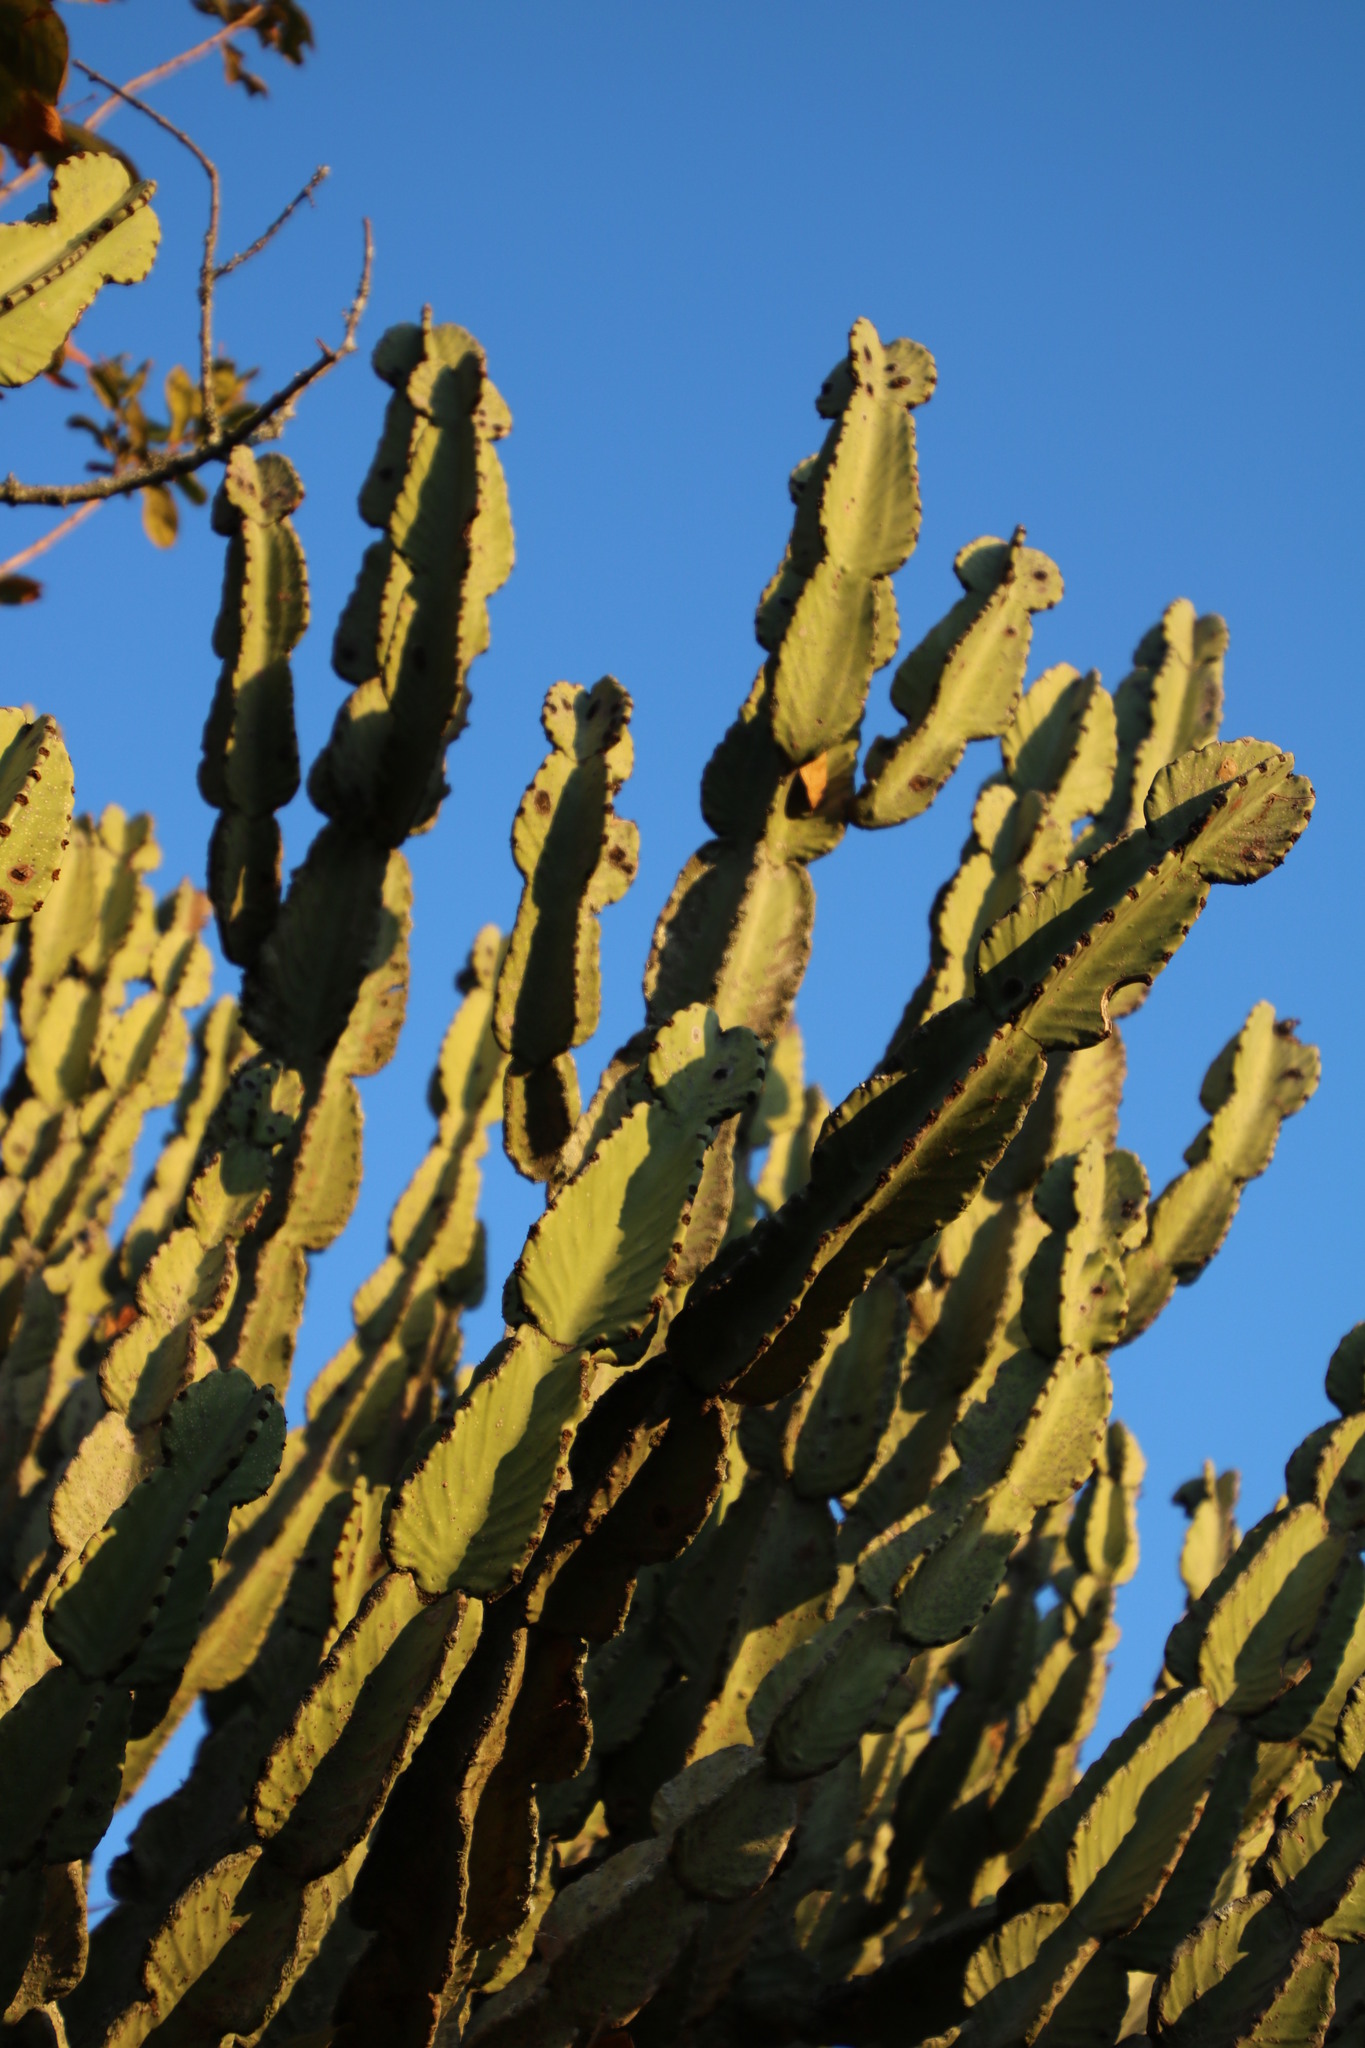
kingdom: Plantae
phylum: Tracheophyta
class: Magnoliopsida
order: Malpighiales
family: Euphorbiaceae
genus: Euphorbia
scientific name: Euphorbia ingens
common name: Cactus spurge
